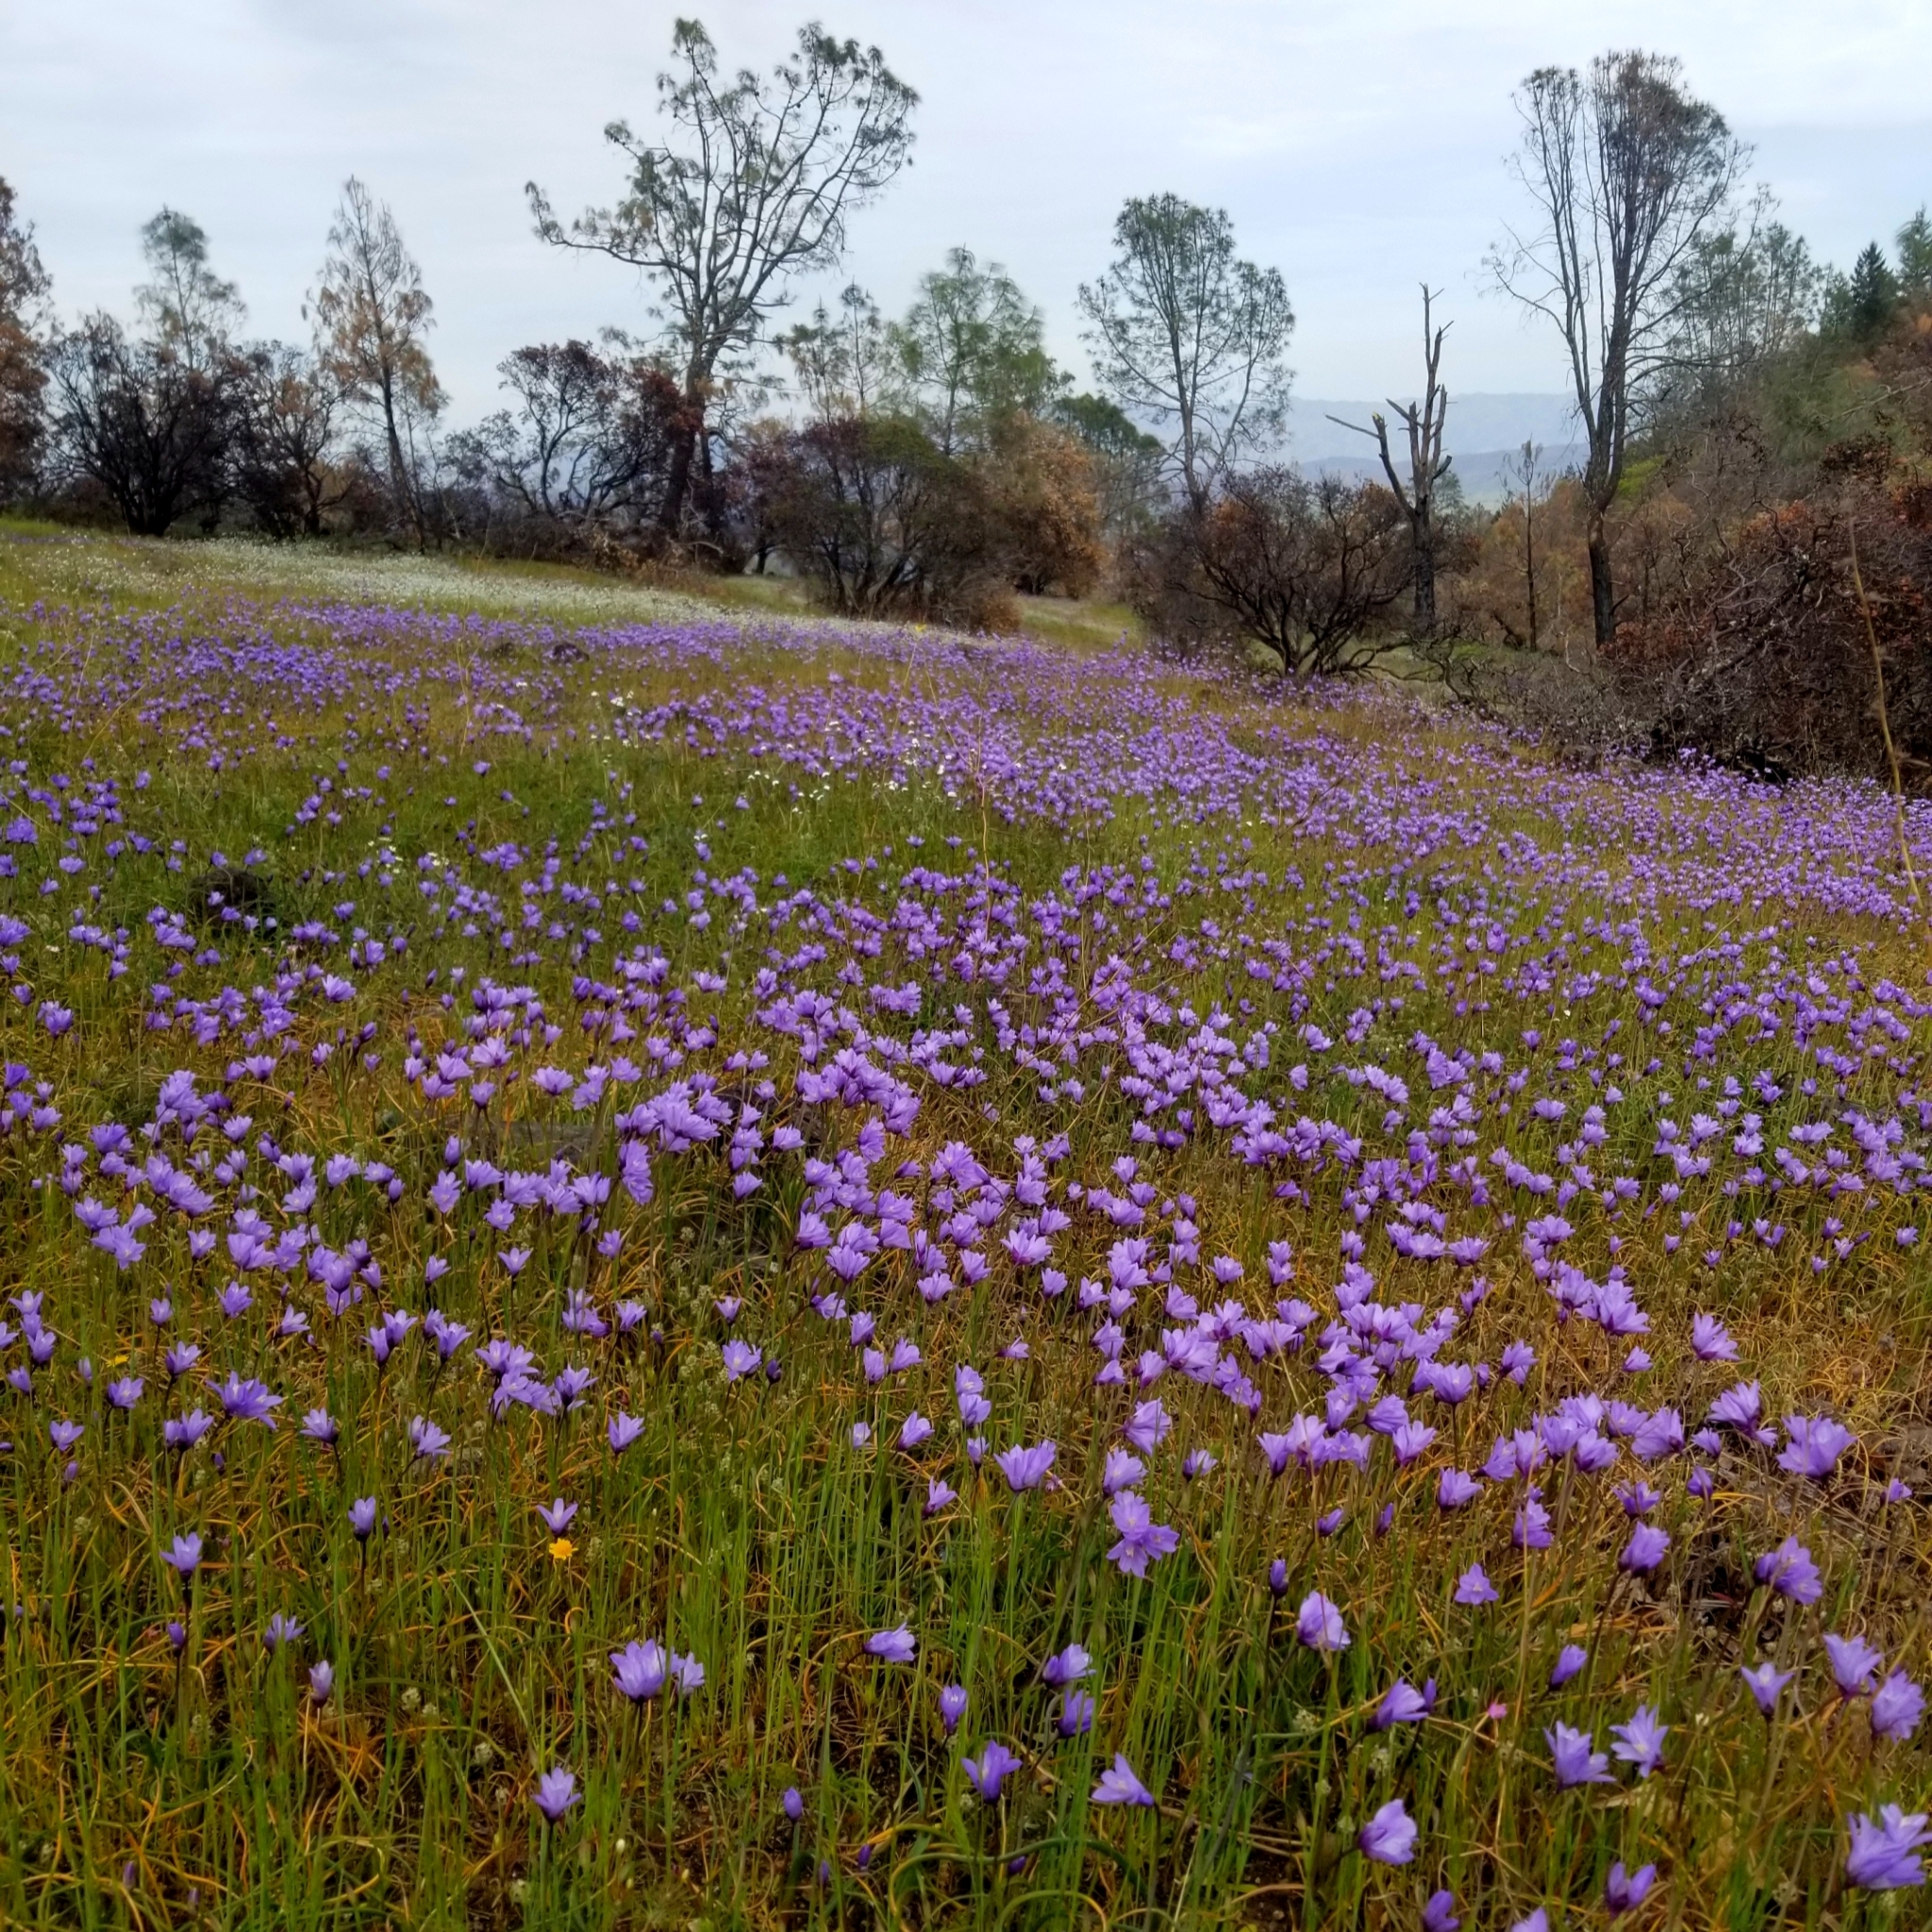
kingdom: Plantae
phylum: Tracheophyta
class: Liliopsida
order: Asparagales
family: Asparagaceae
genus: Dipterostemon
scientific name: Dipterostemon capitatus
